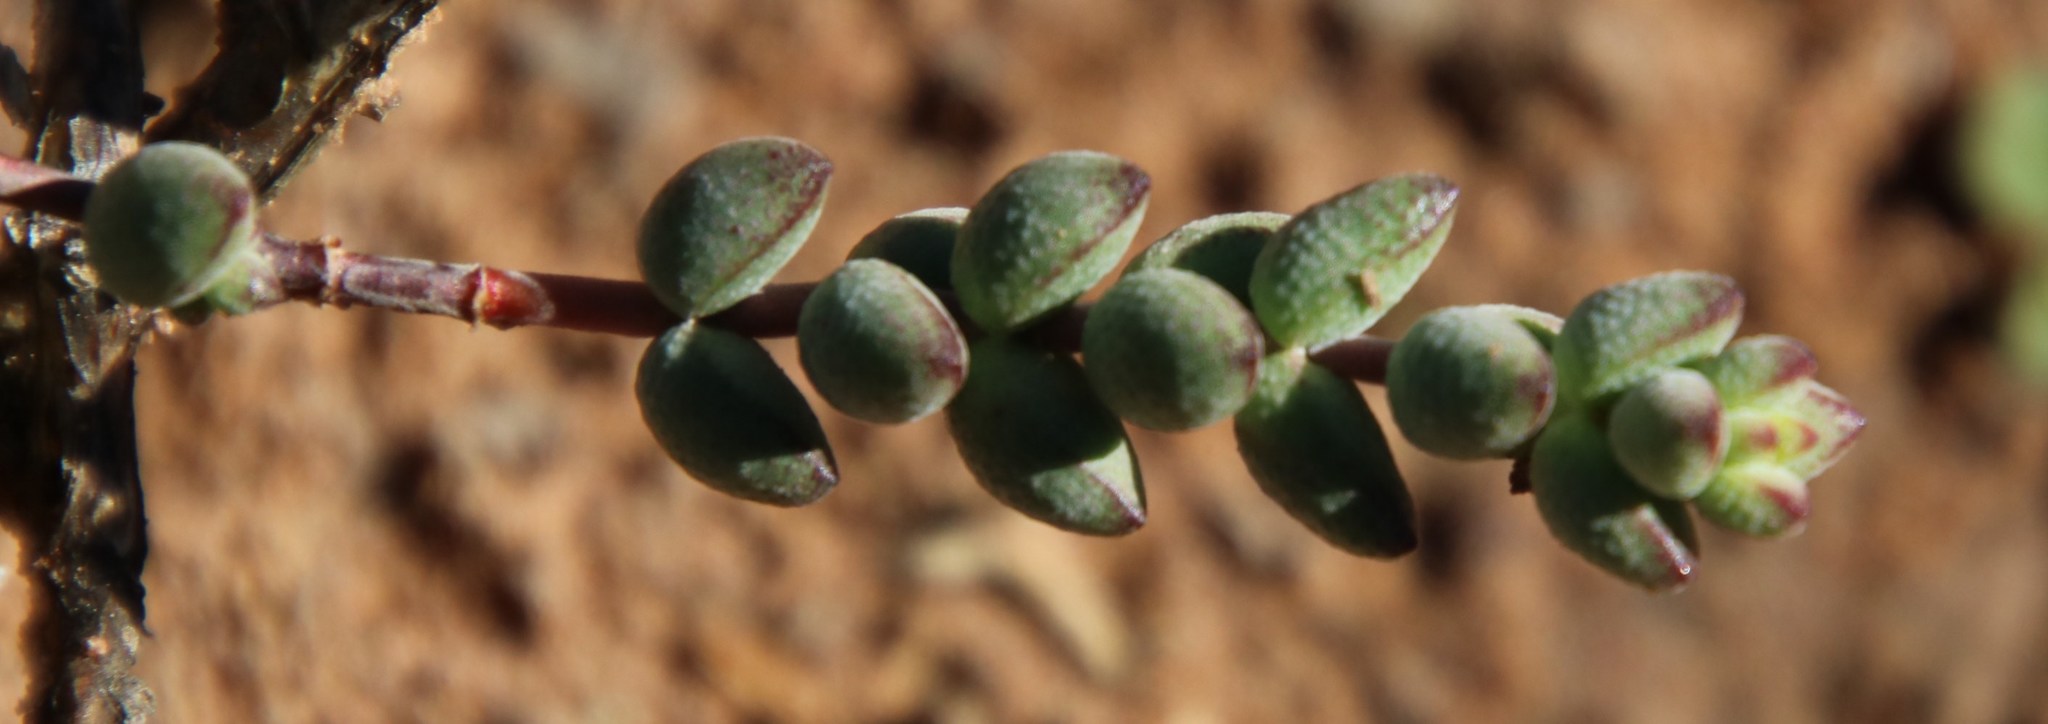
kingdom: Plantae
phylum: Tracheophyta
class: Magnoliopsida
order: Saxifragales
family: Crassulaceae
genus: Crassula
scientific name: Crassula subaphylla
